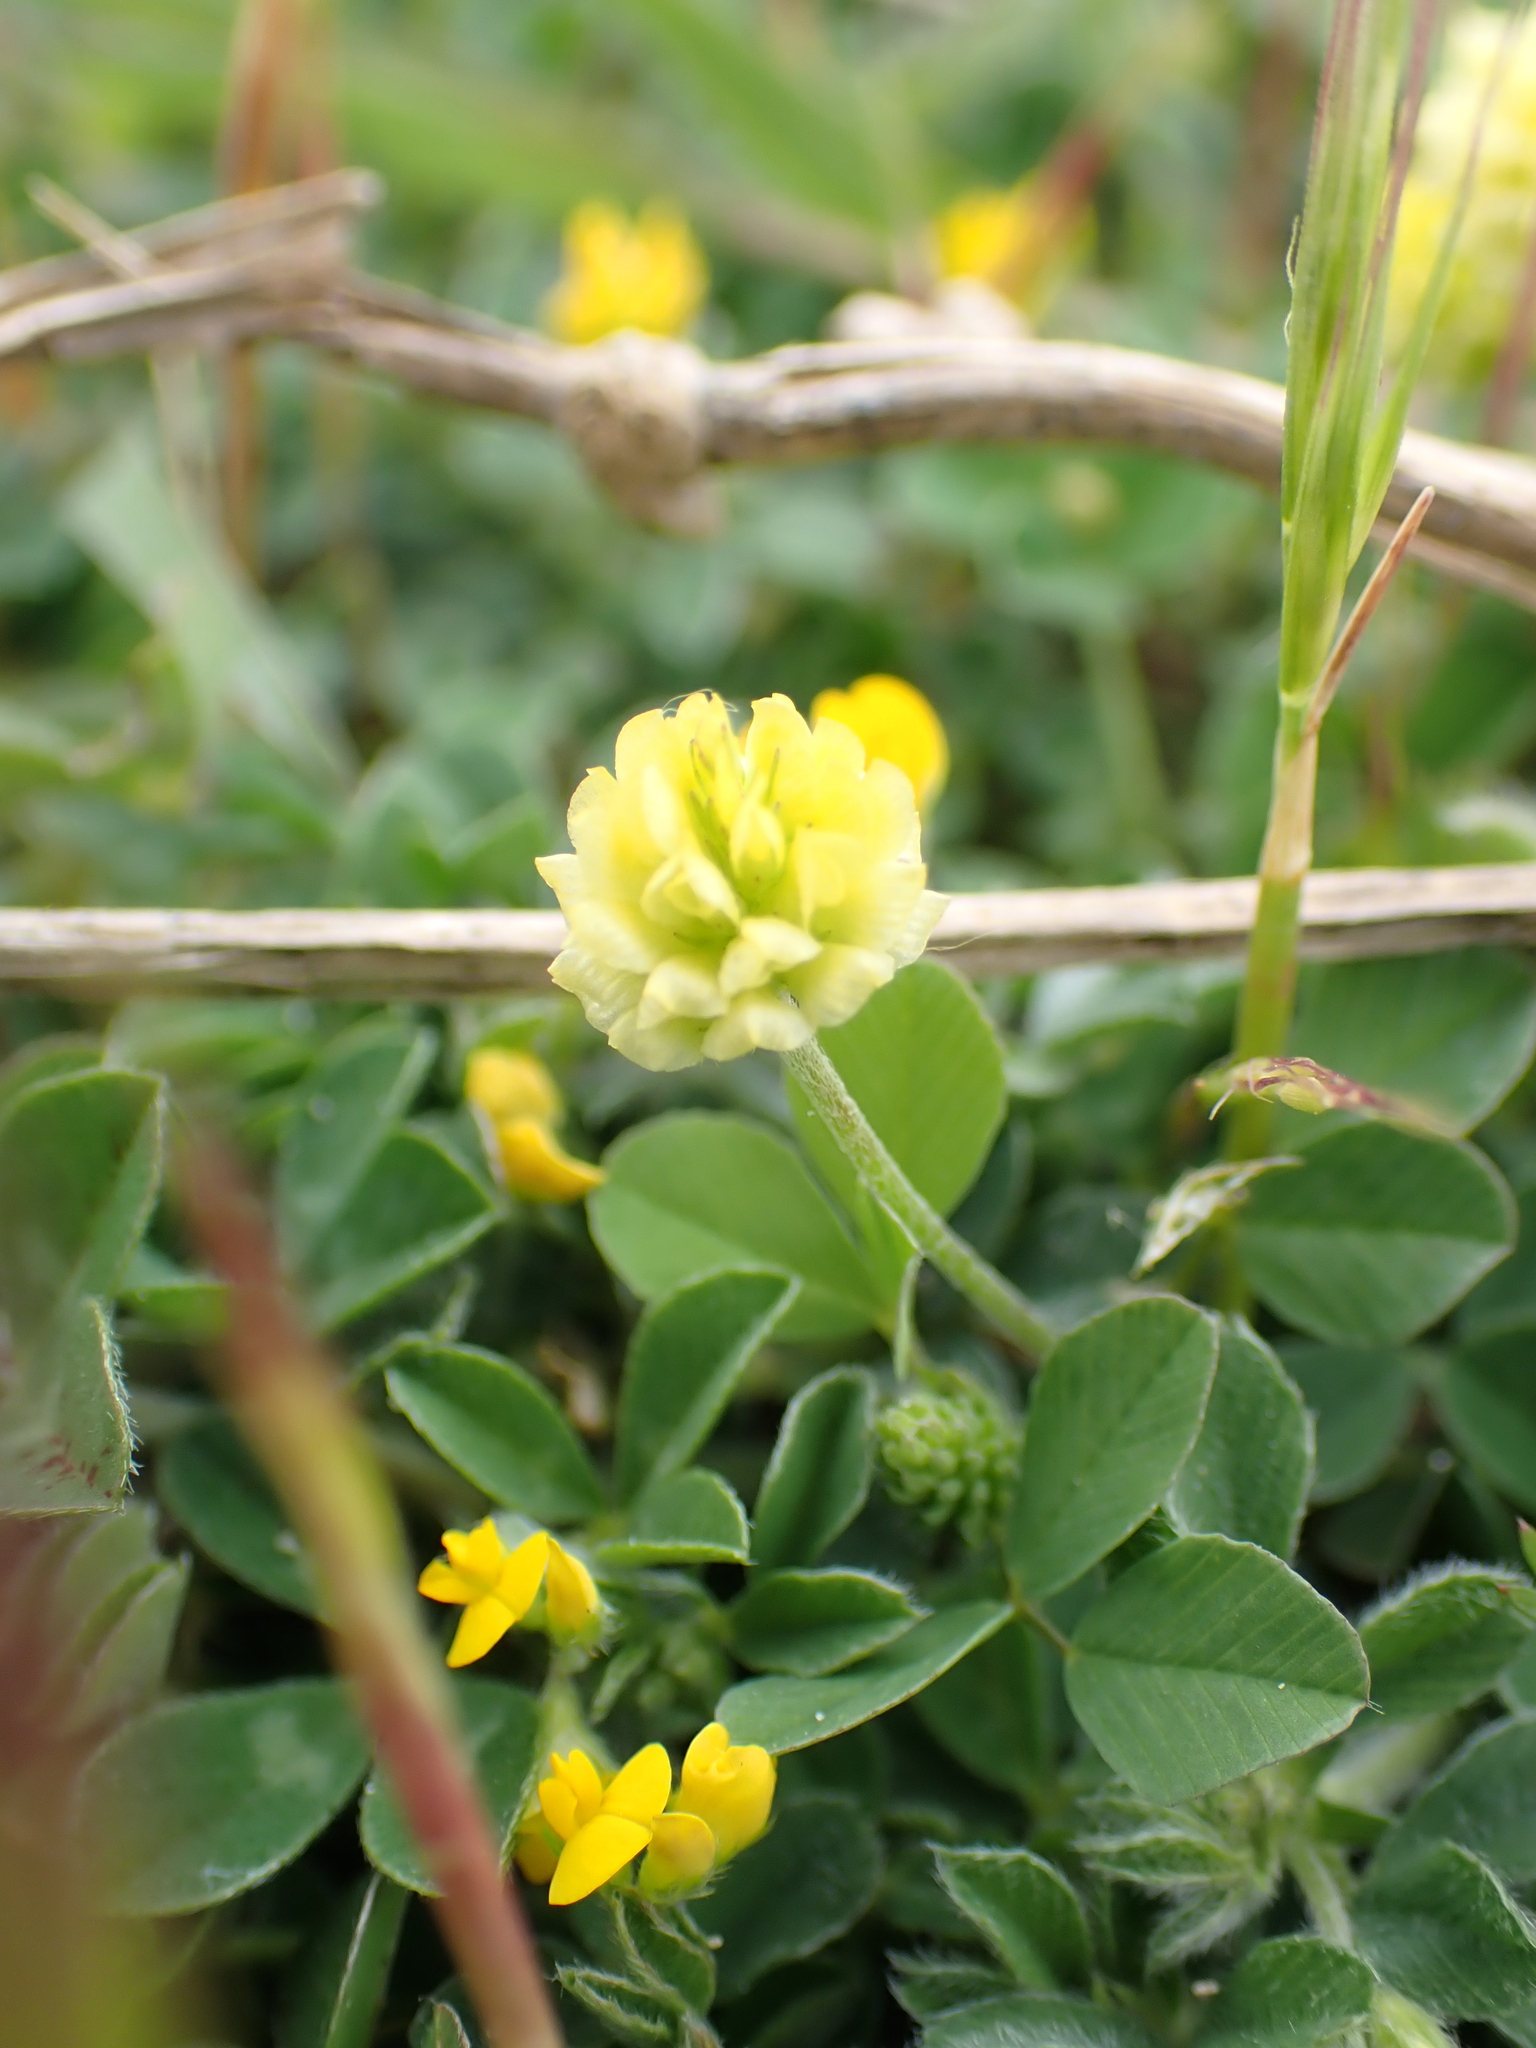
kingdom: Plantae
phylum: Tracheophyta
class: Magnoliopsida
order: Fabales
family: Fabaceae
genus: Trifolium
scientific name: Trifolium campestre
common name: Field clover
